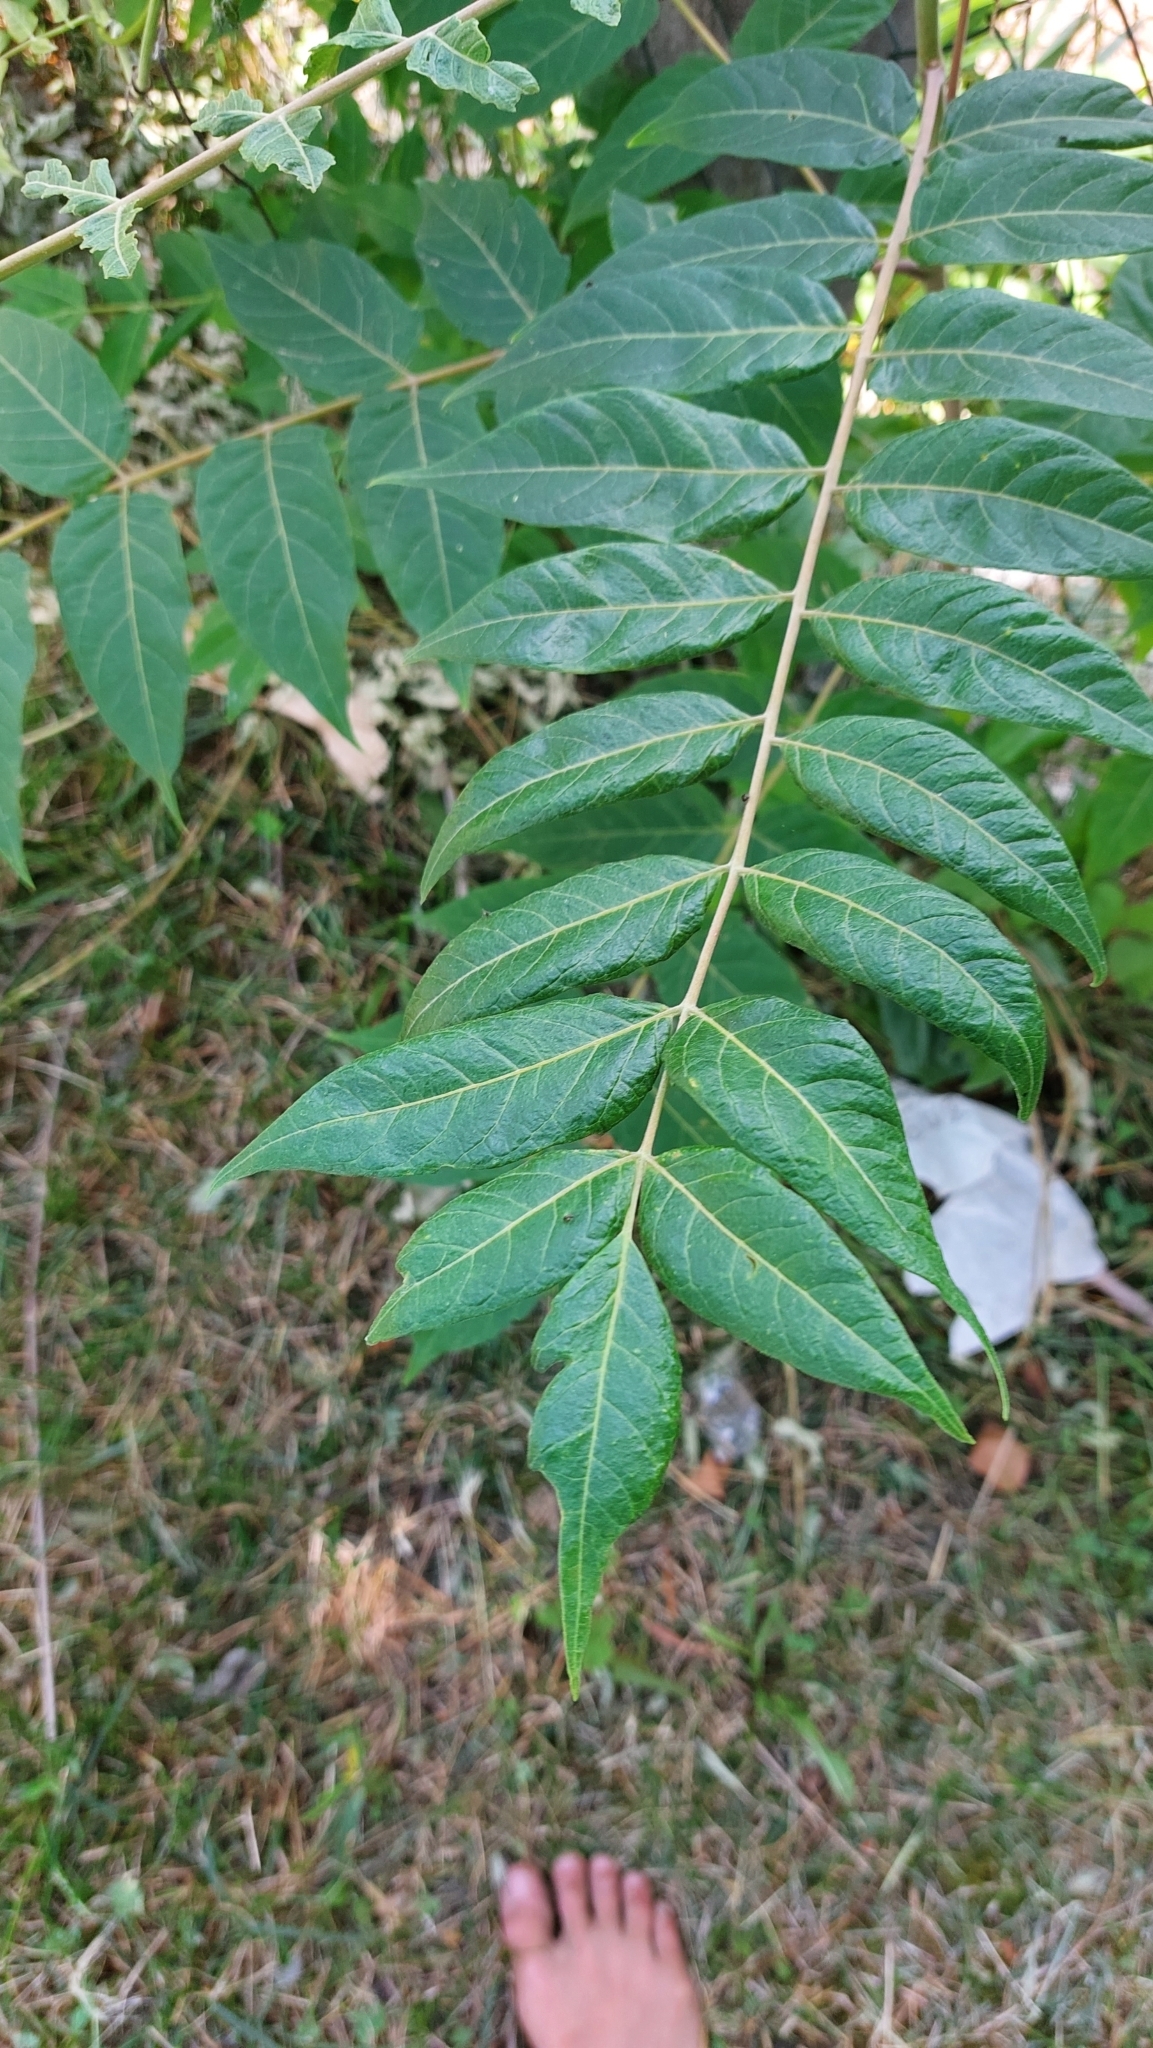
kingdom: Plantae
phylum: Tracheophyta
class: Magnoliopsida
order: Sapindales
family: Simaroubaceae
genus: Ailanthus
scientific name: Ailanthus altissima
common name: Tree-of-heaven
